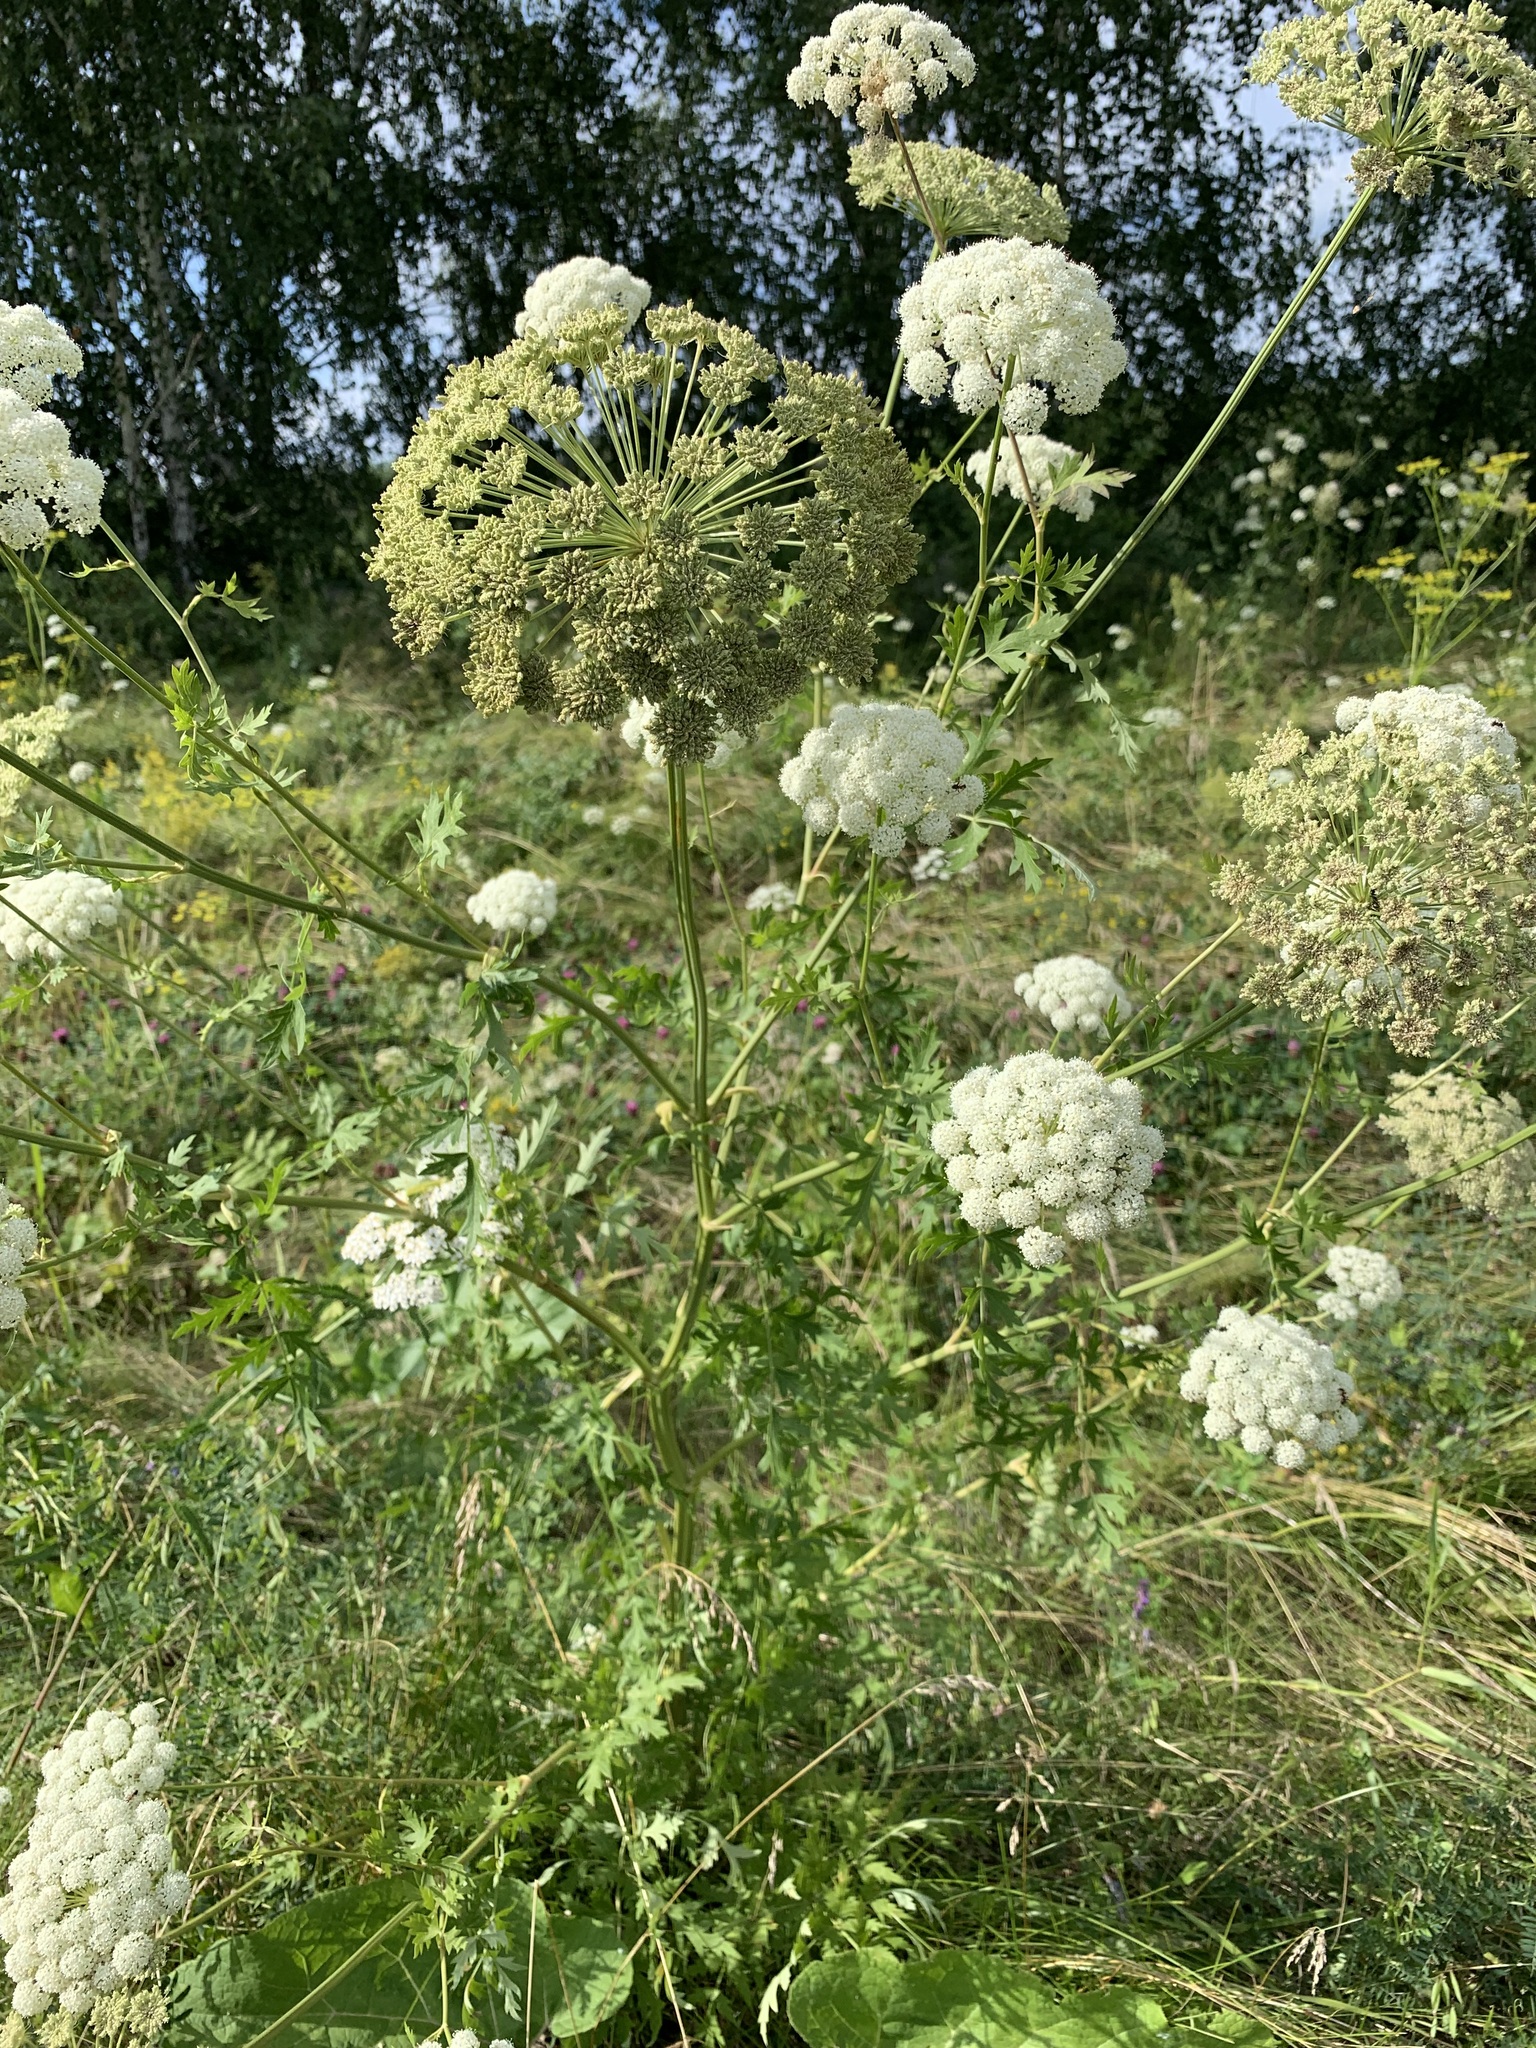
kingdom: Plantae
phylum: Tracheophyta
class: Magnoliopsida
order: Apiales
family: Apiaceae
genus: Seseli
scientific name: Seseli libanotis
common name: Mooncarrot
